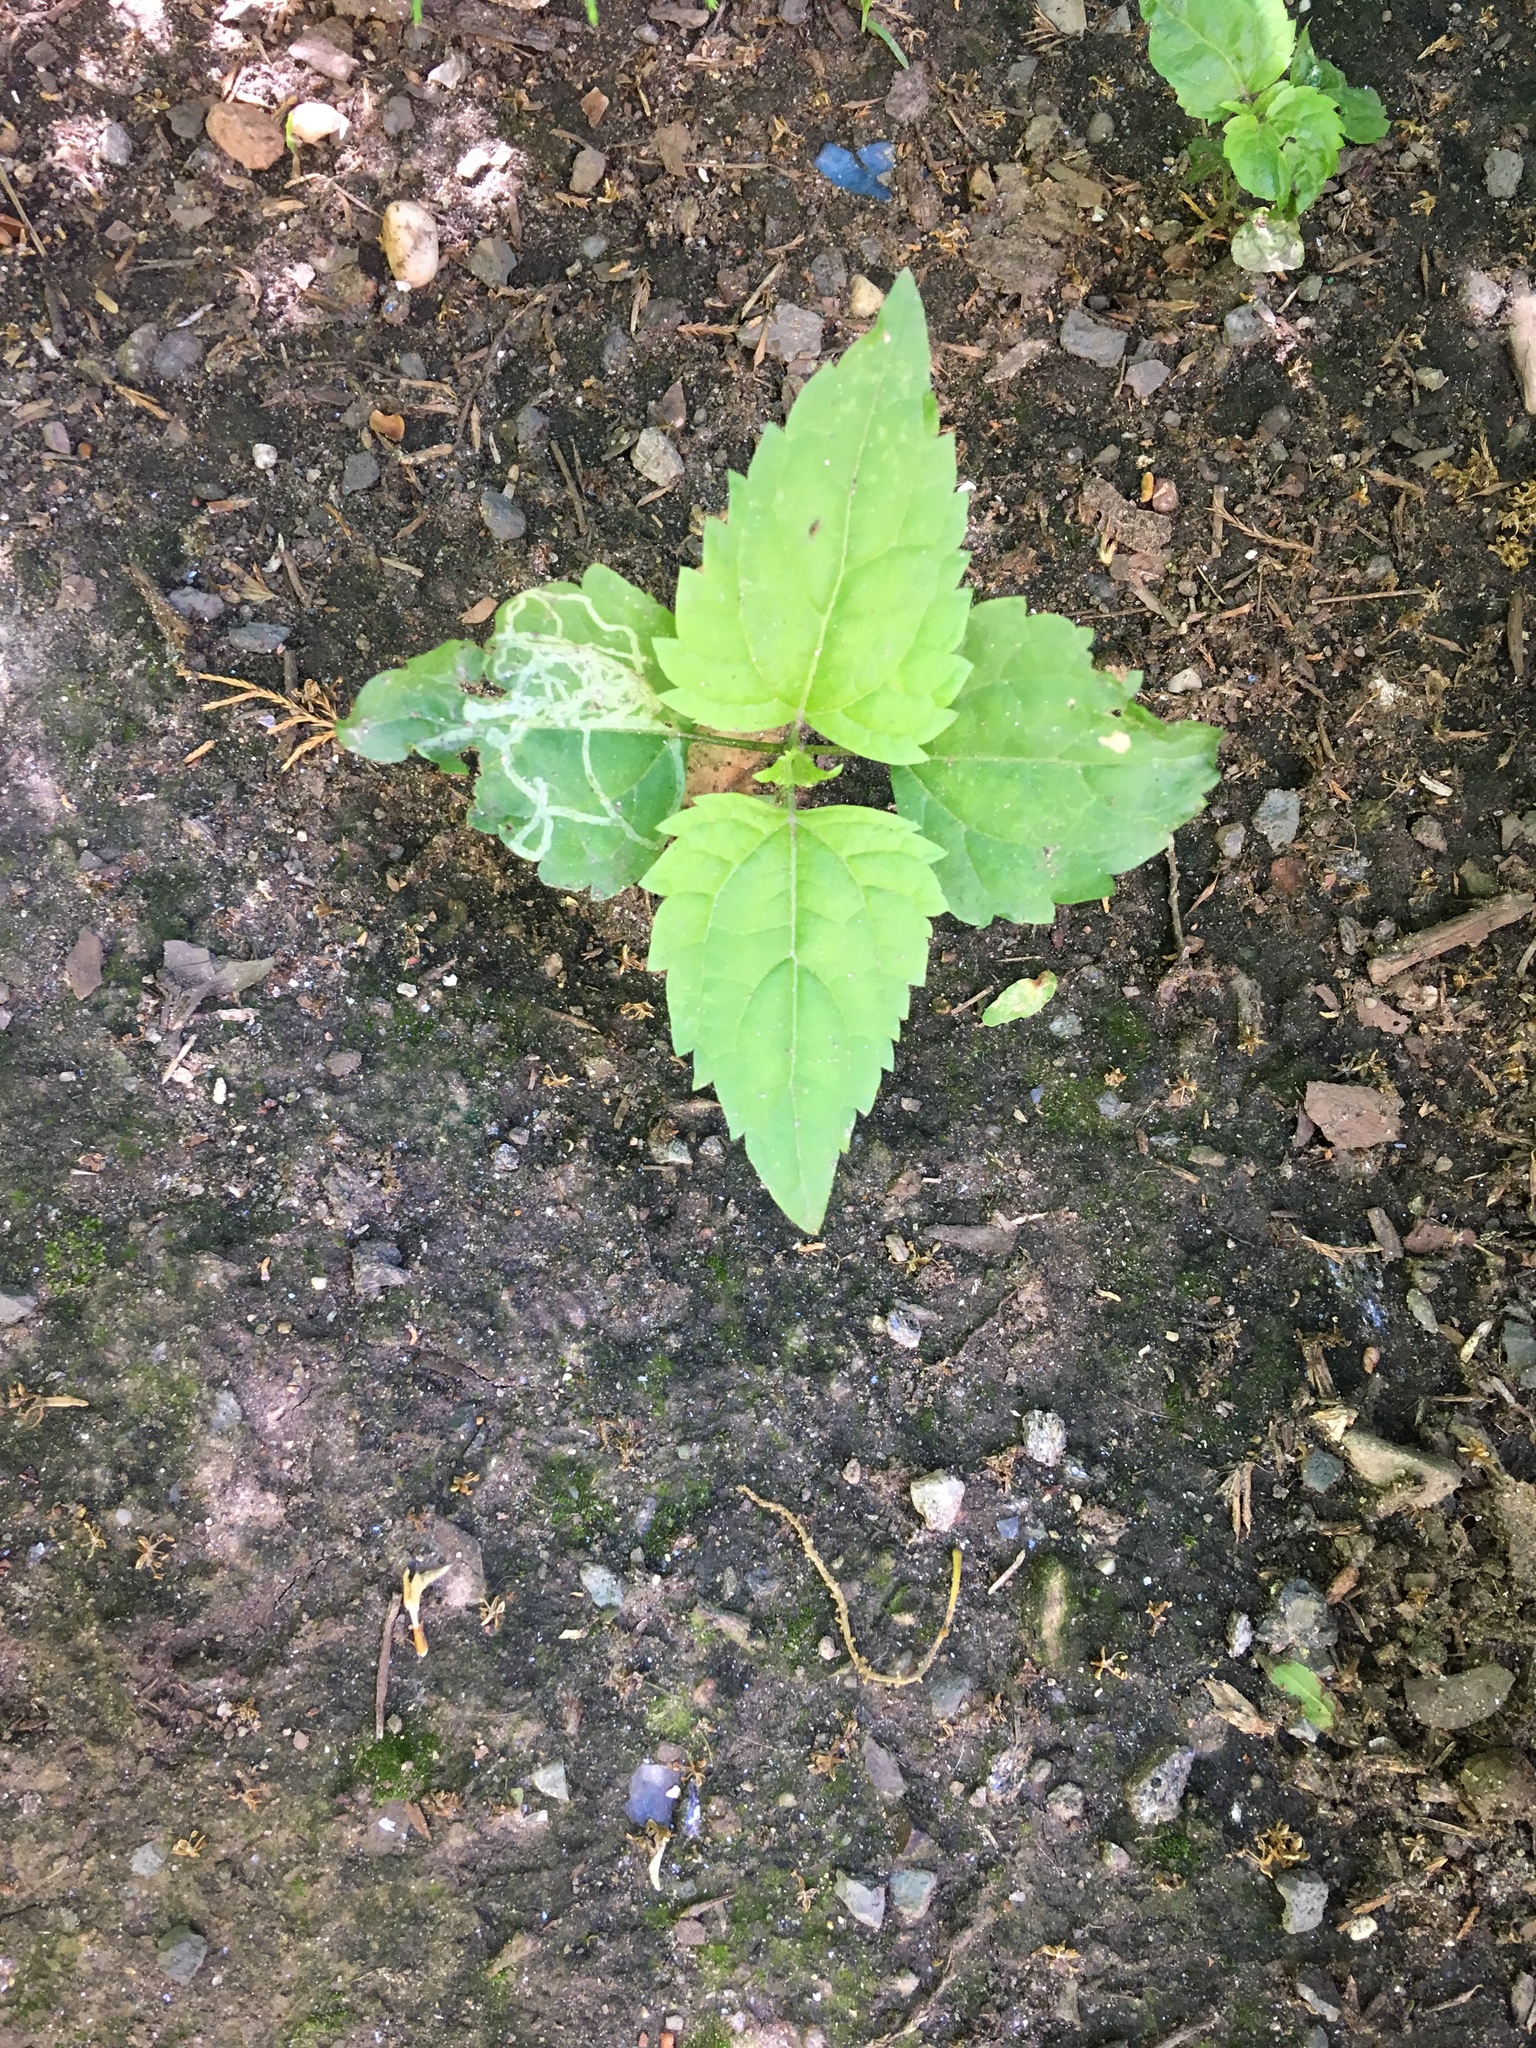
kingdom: Plantae
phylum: Tracheophyta
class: Magnoliopsida
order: Asterales
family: Asteraceae
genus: Ageratina
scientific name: Ageratina altissima
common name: White snakeroot
